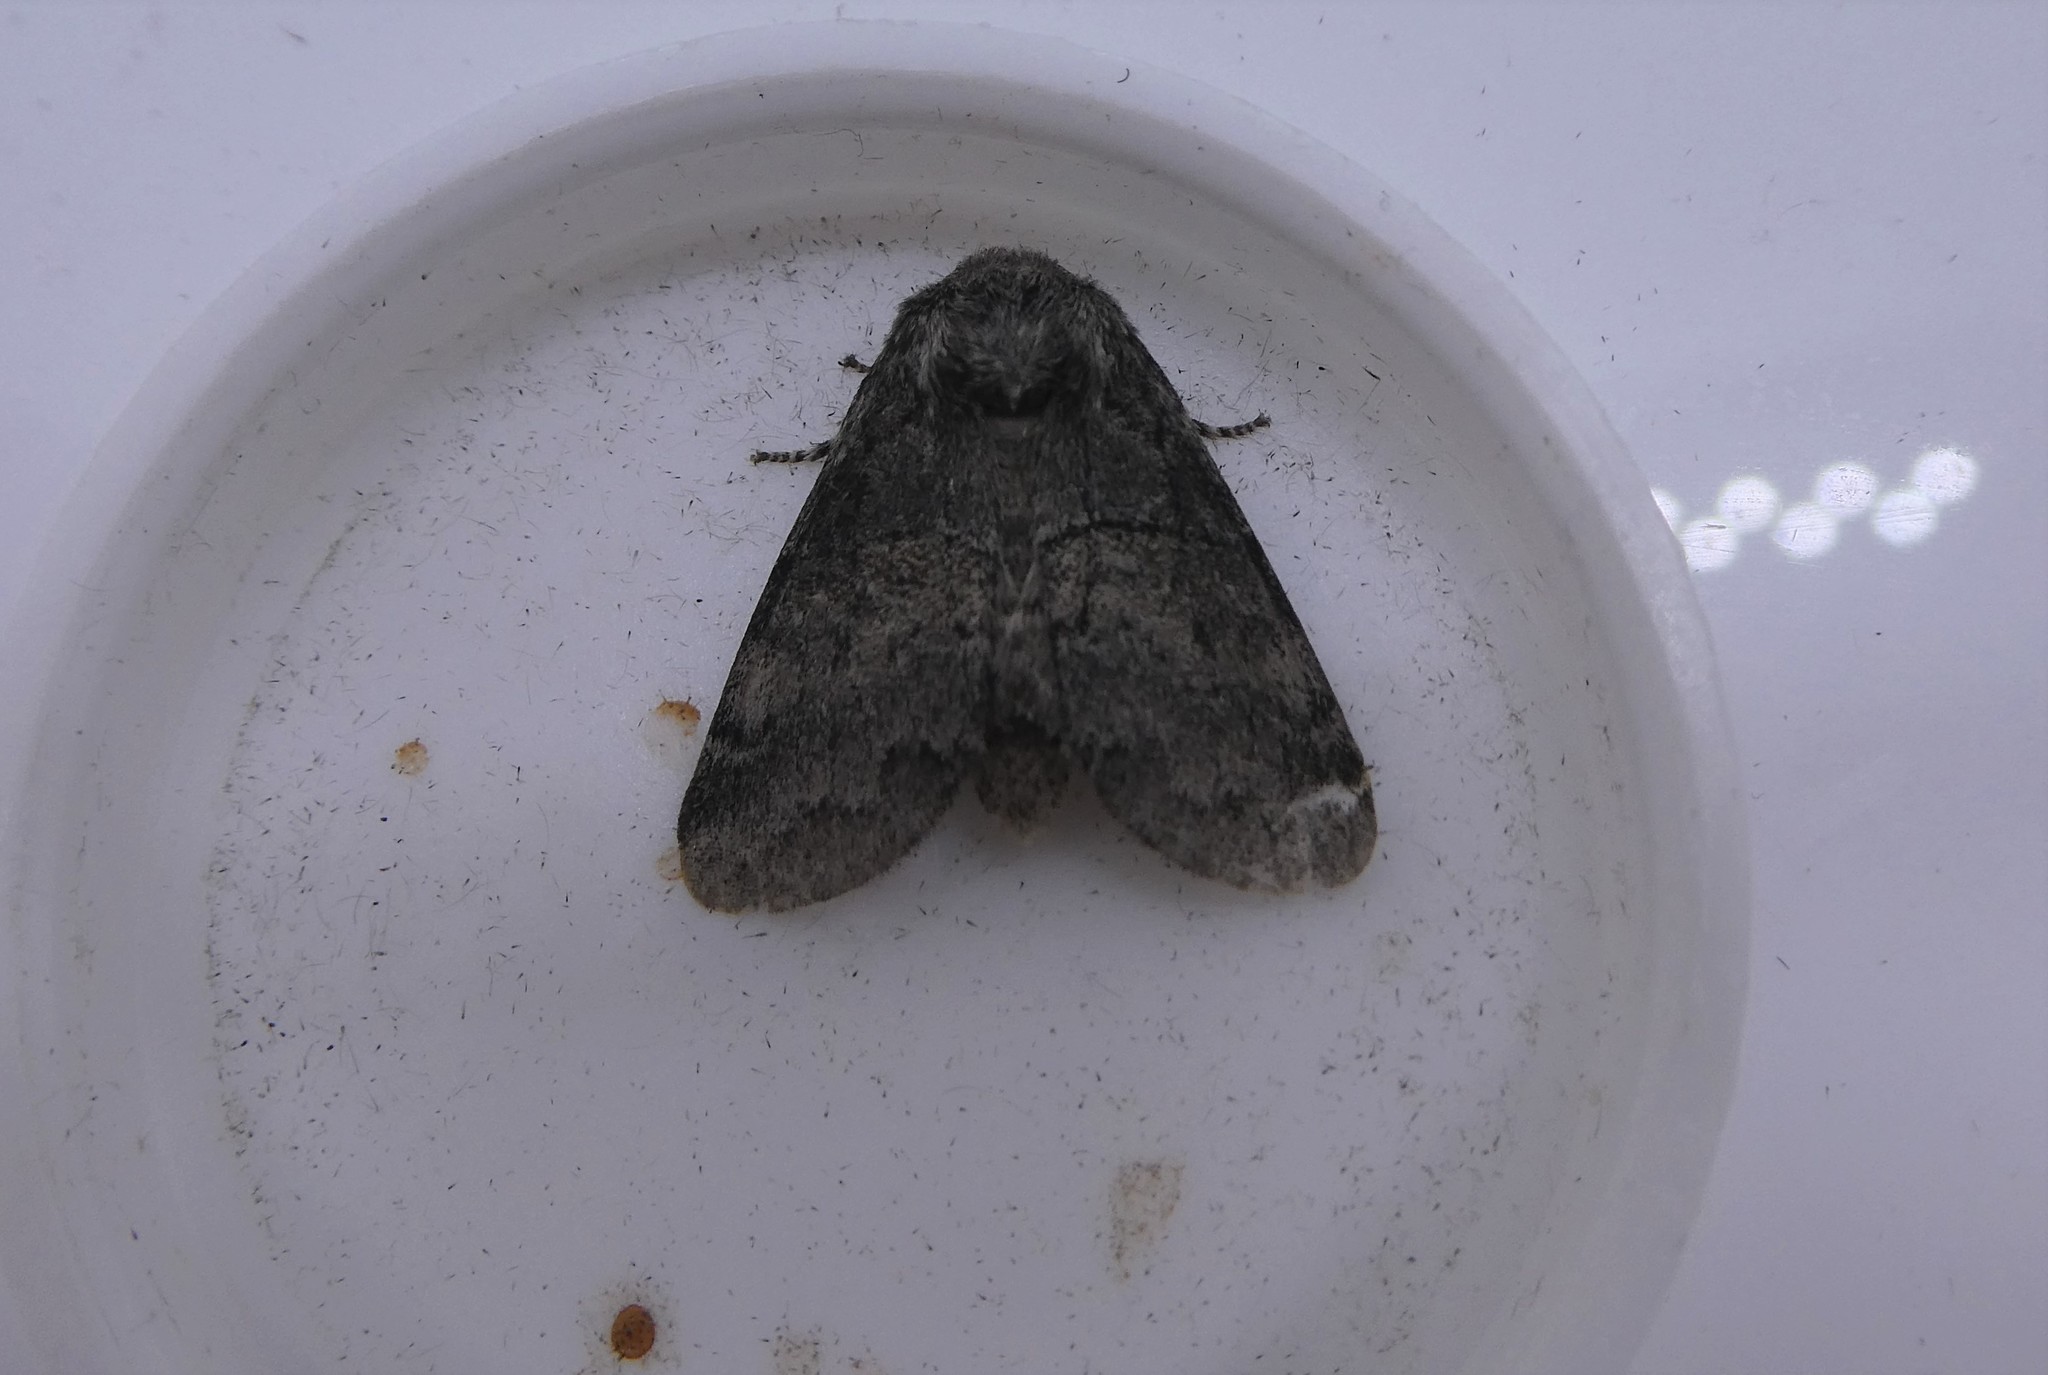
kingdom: Animalia
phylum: Arthropoda
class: Insecta
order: Lepidoptera
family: Notodontidae
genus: Gluphisia
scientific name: Gluphisia septentrionis
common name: Common gluphisia
